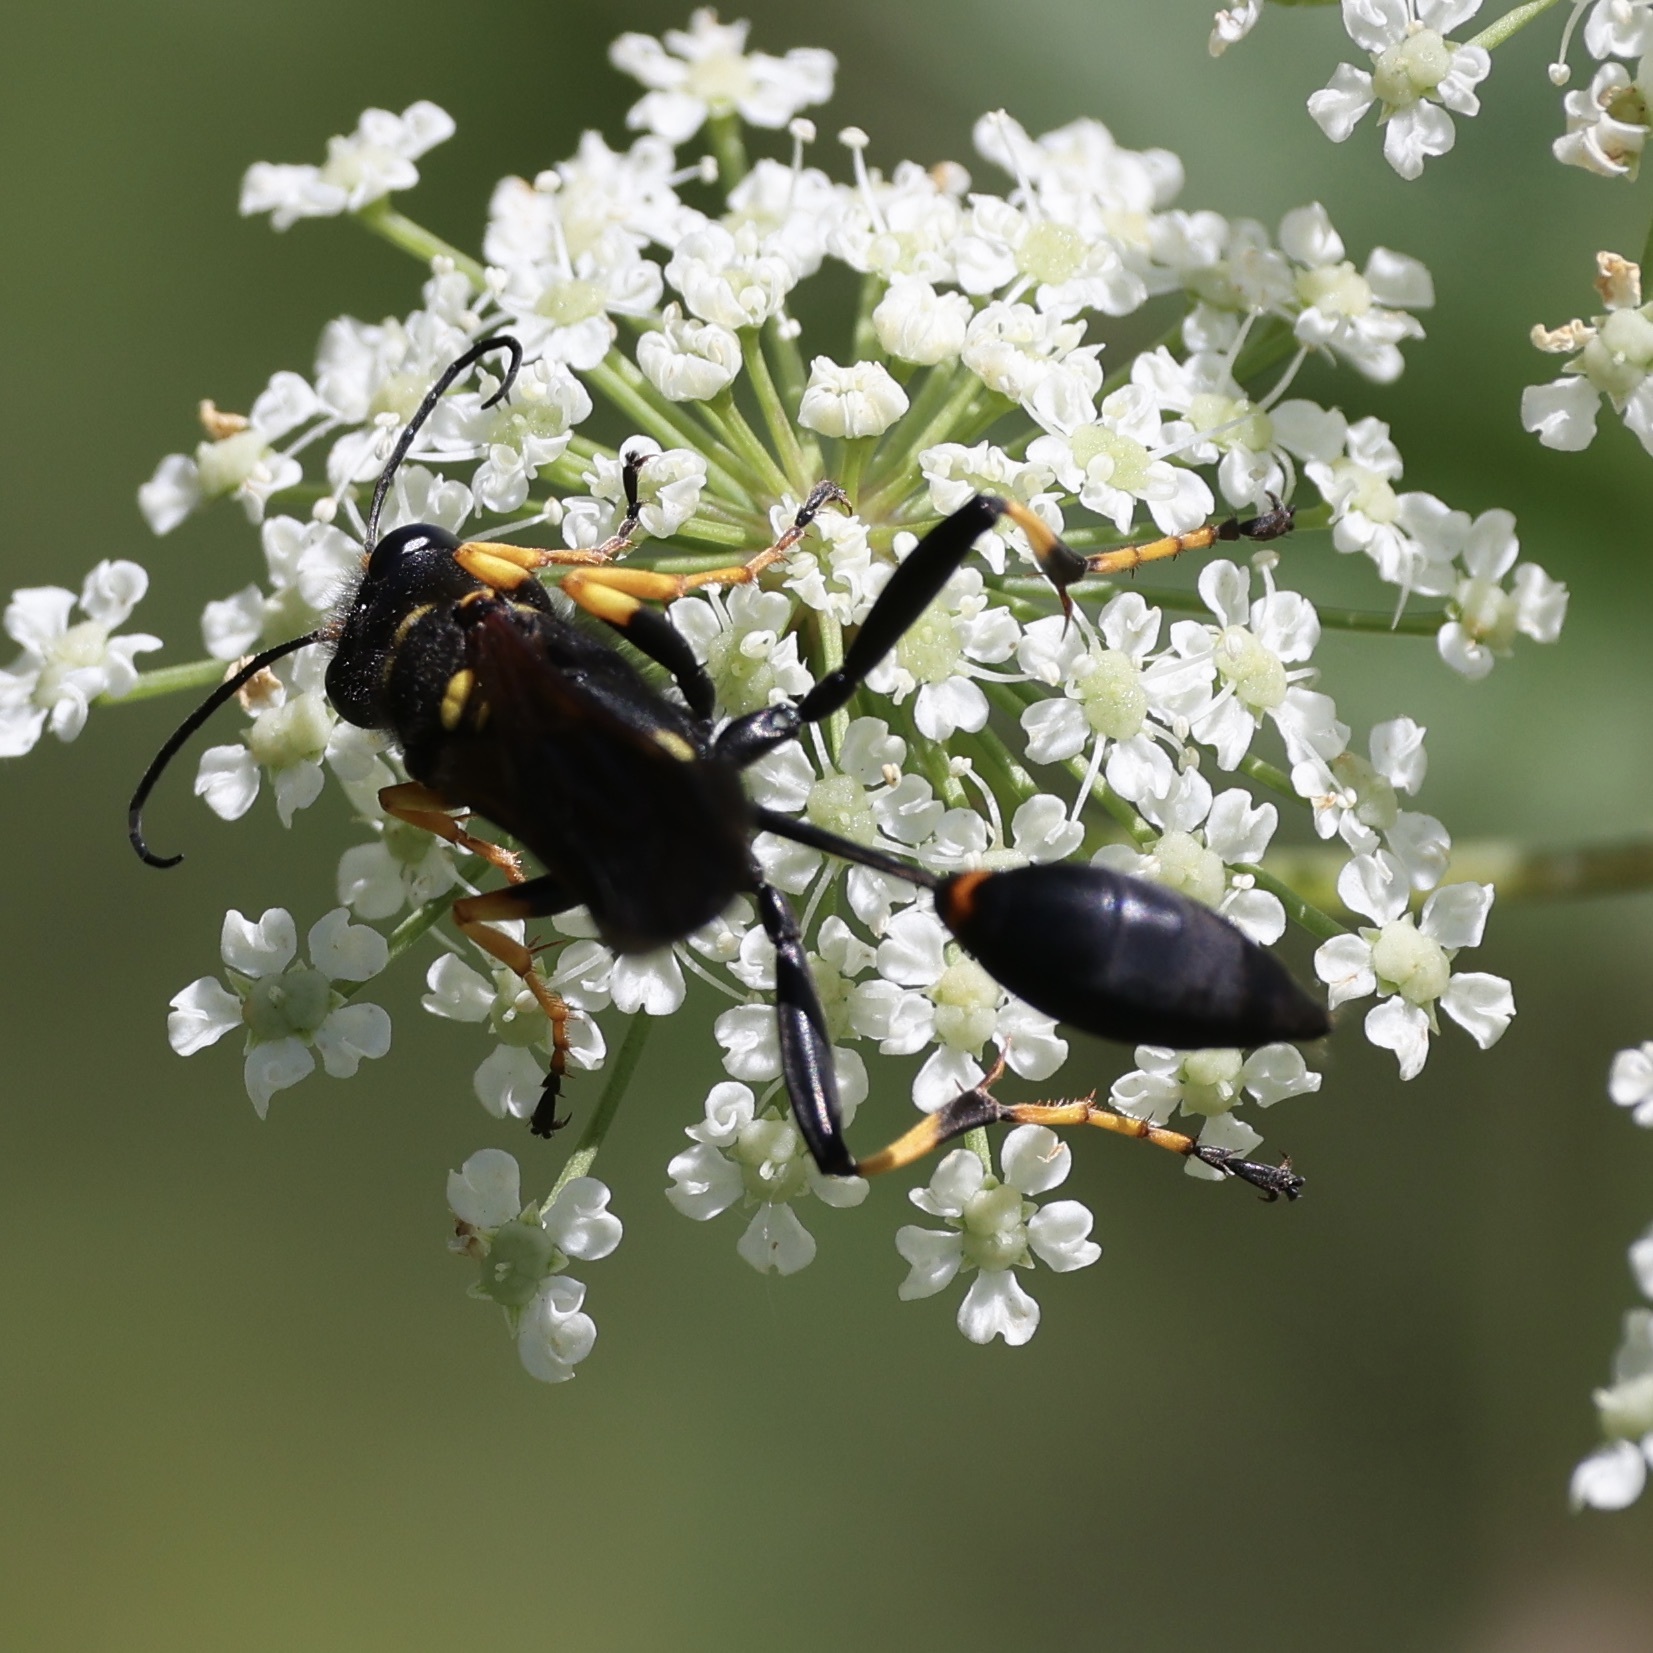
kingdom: Animalia
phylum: Arthropoda
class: Insecta
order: Hymenoptera
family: Sphecidae
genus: Sceliphron
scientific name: Sceliphron caementarium
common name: Mud dauber
